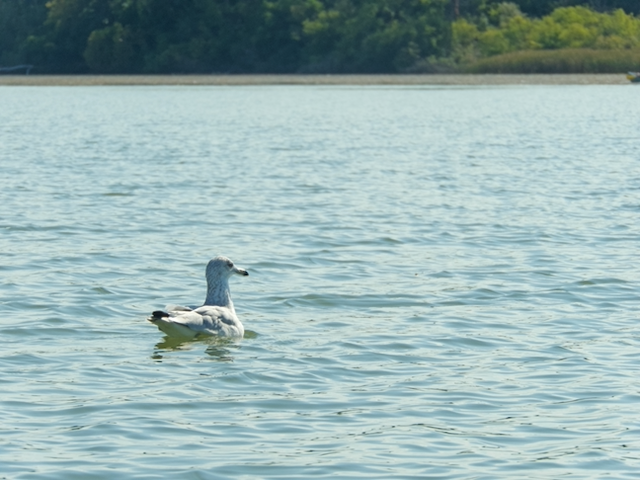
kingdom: Animalia
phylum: Chordata
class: Aves
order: Charadriiformes
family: Laridae
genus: Larus
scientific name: Larus delawarensis
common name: Ring-billed gull
